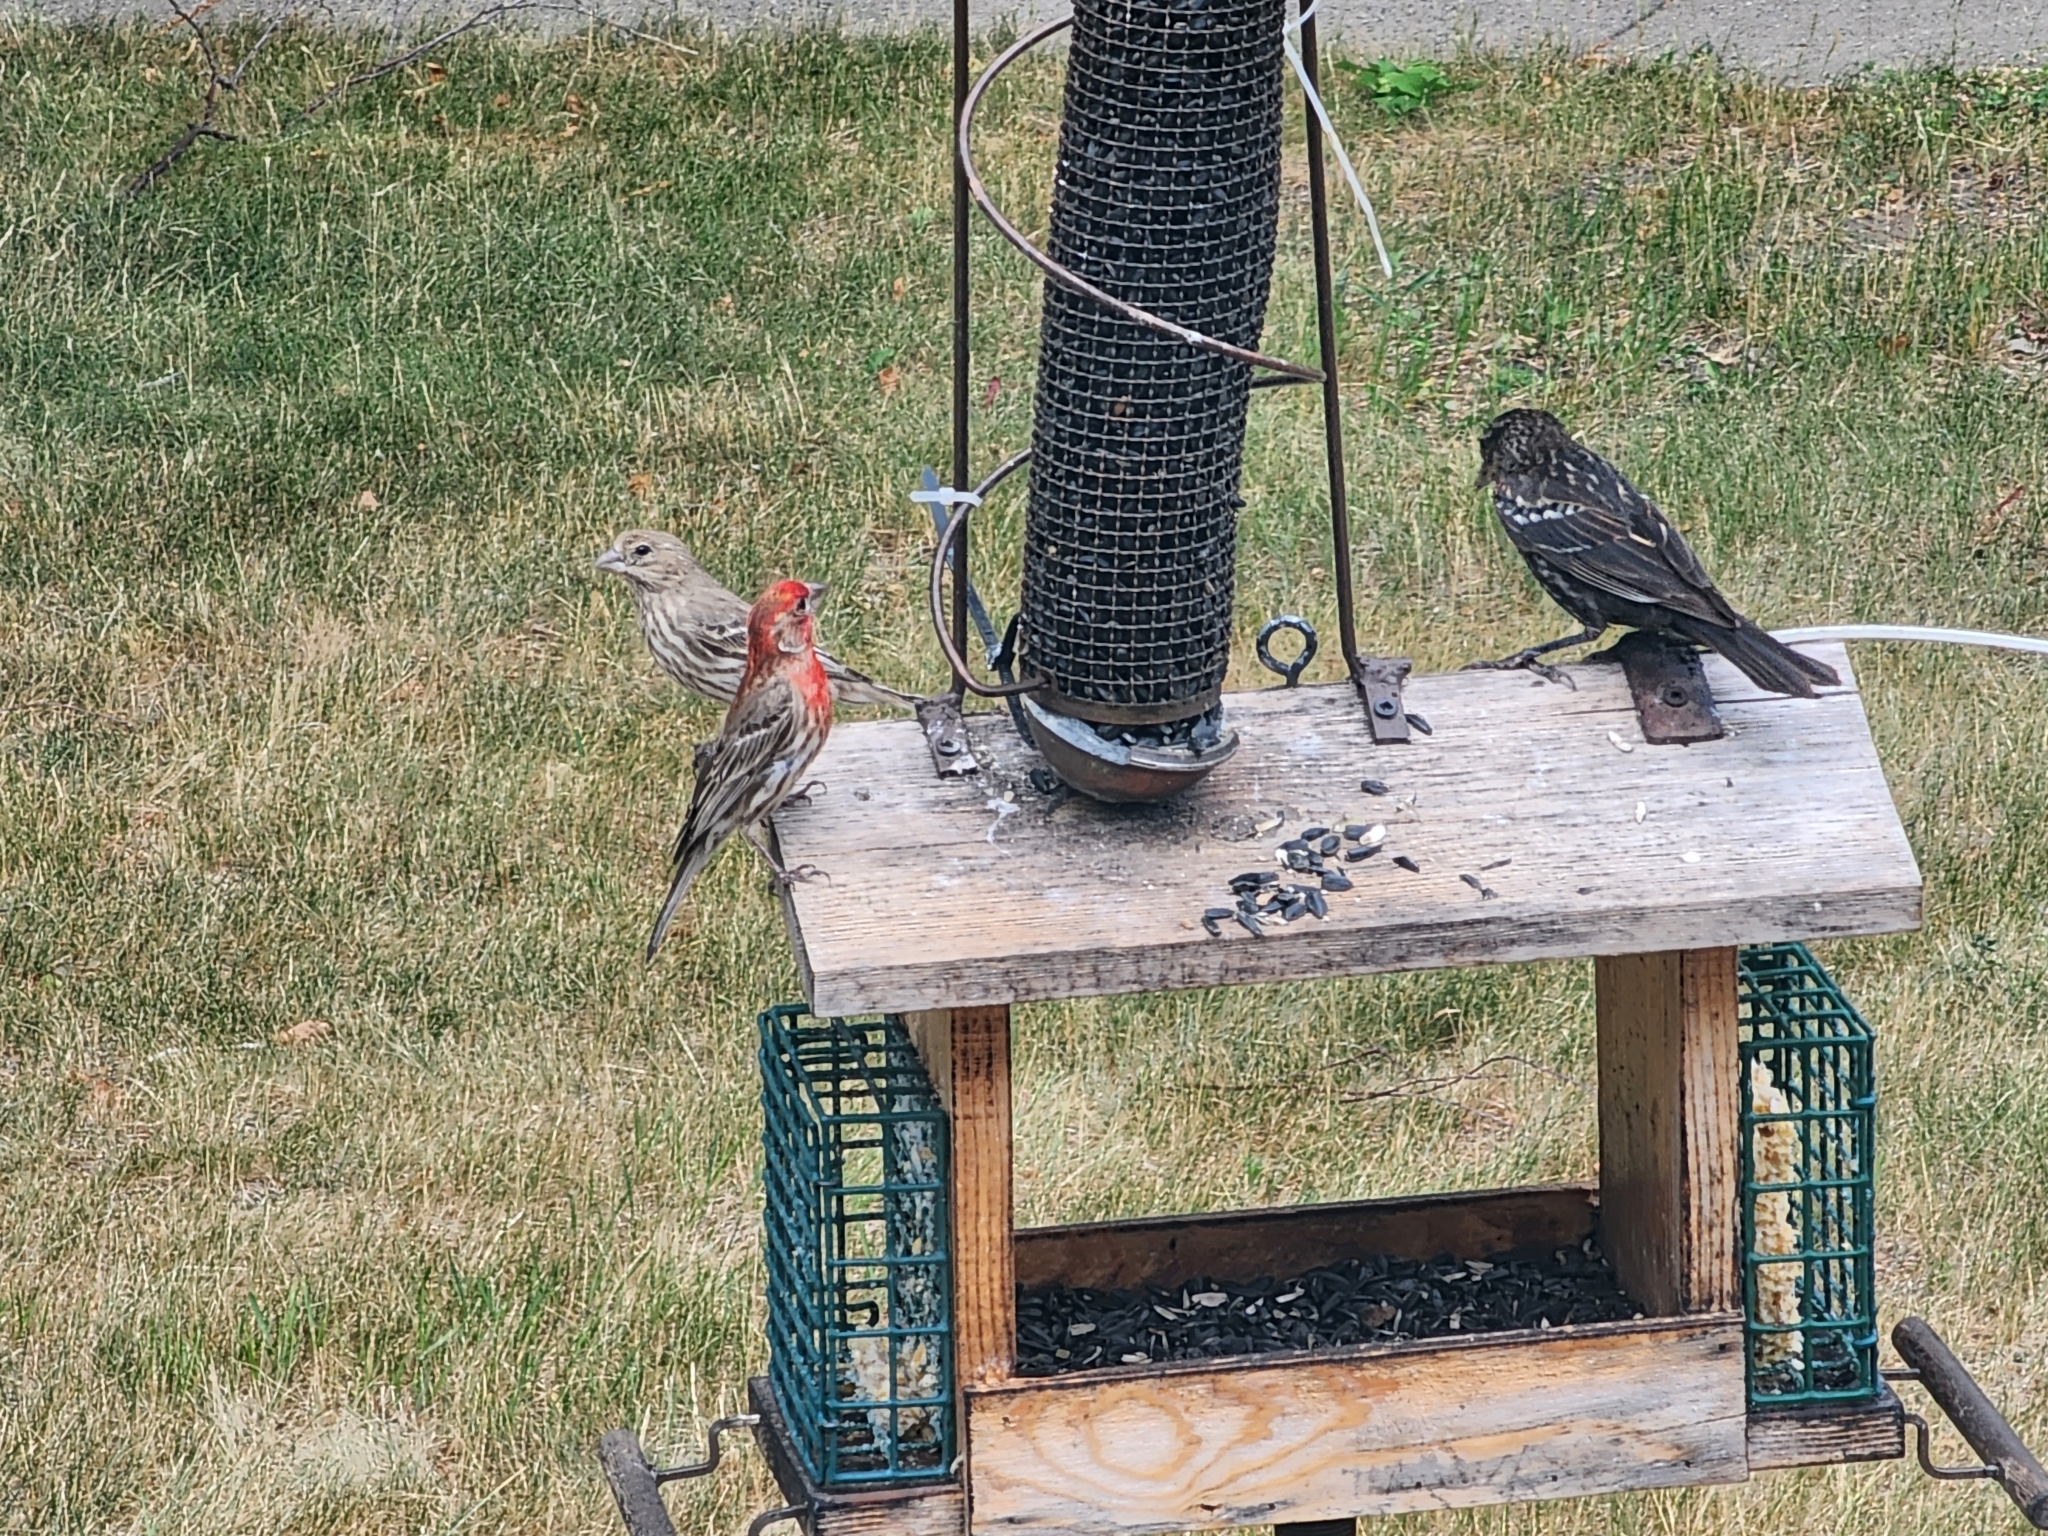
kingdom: Animalia
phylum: Chordata
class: Aves
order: Passeriformes
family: Fringillidae
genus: Haemorhous
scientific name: Haemorhous mexicanus
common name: House finch
